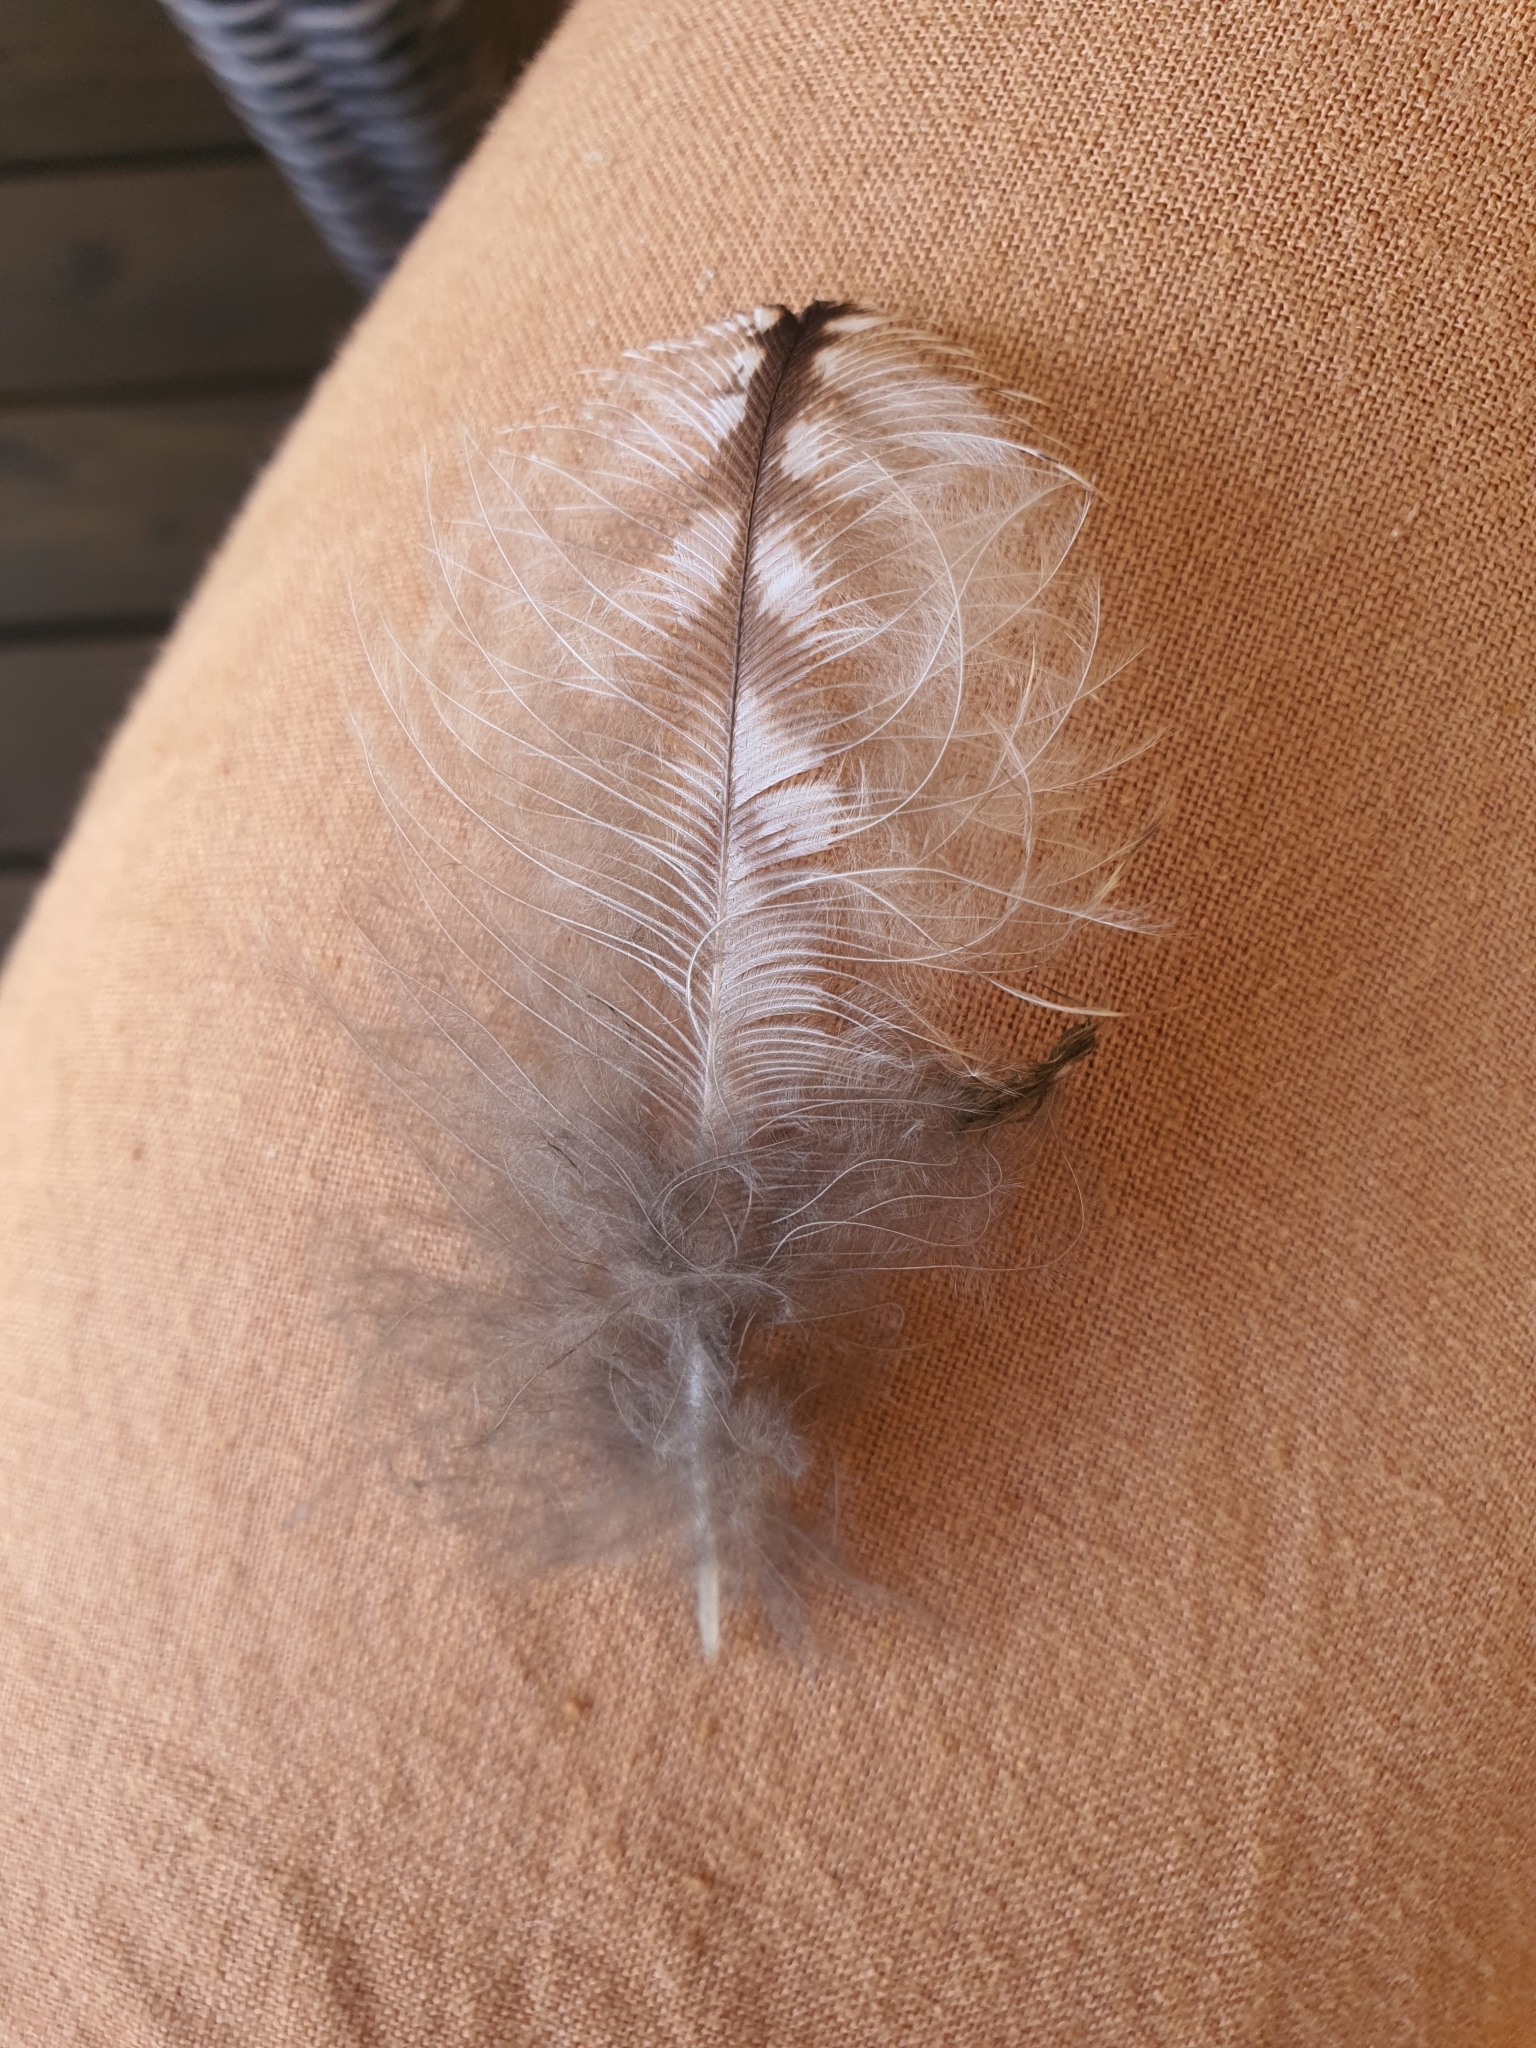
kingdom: Animalia
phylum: Chordata
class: Aves
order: Caprimulgiformes
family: Podargidae
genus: Podargus
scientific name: Podargus strigoides
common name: Tawny frogmouth
